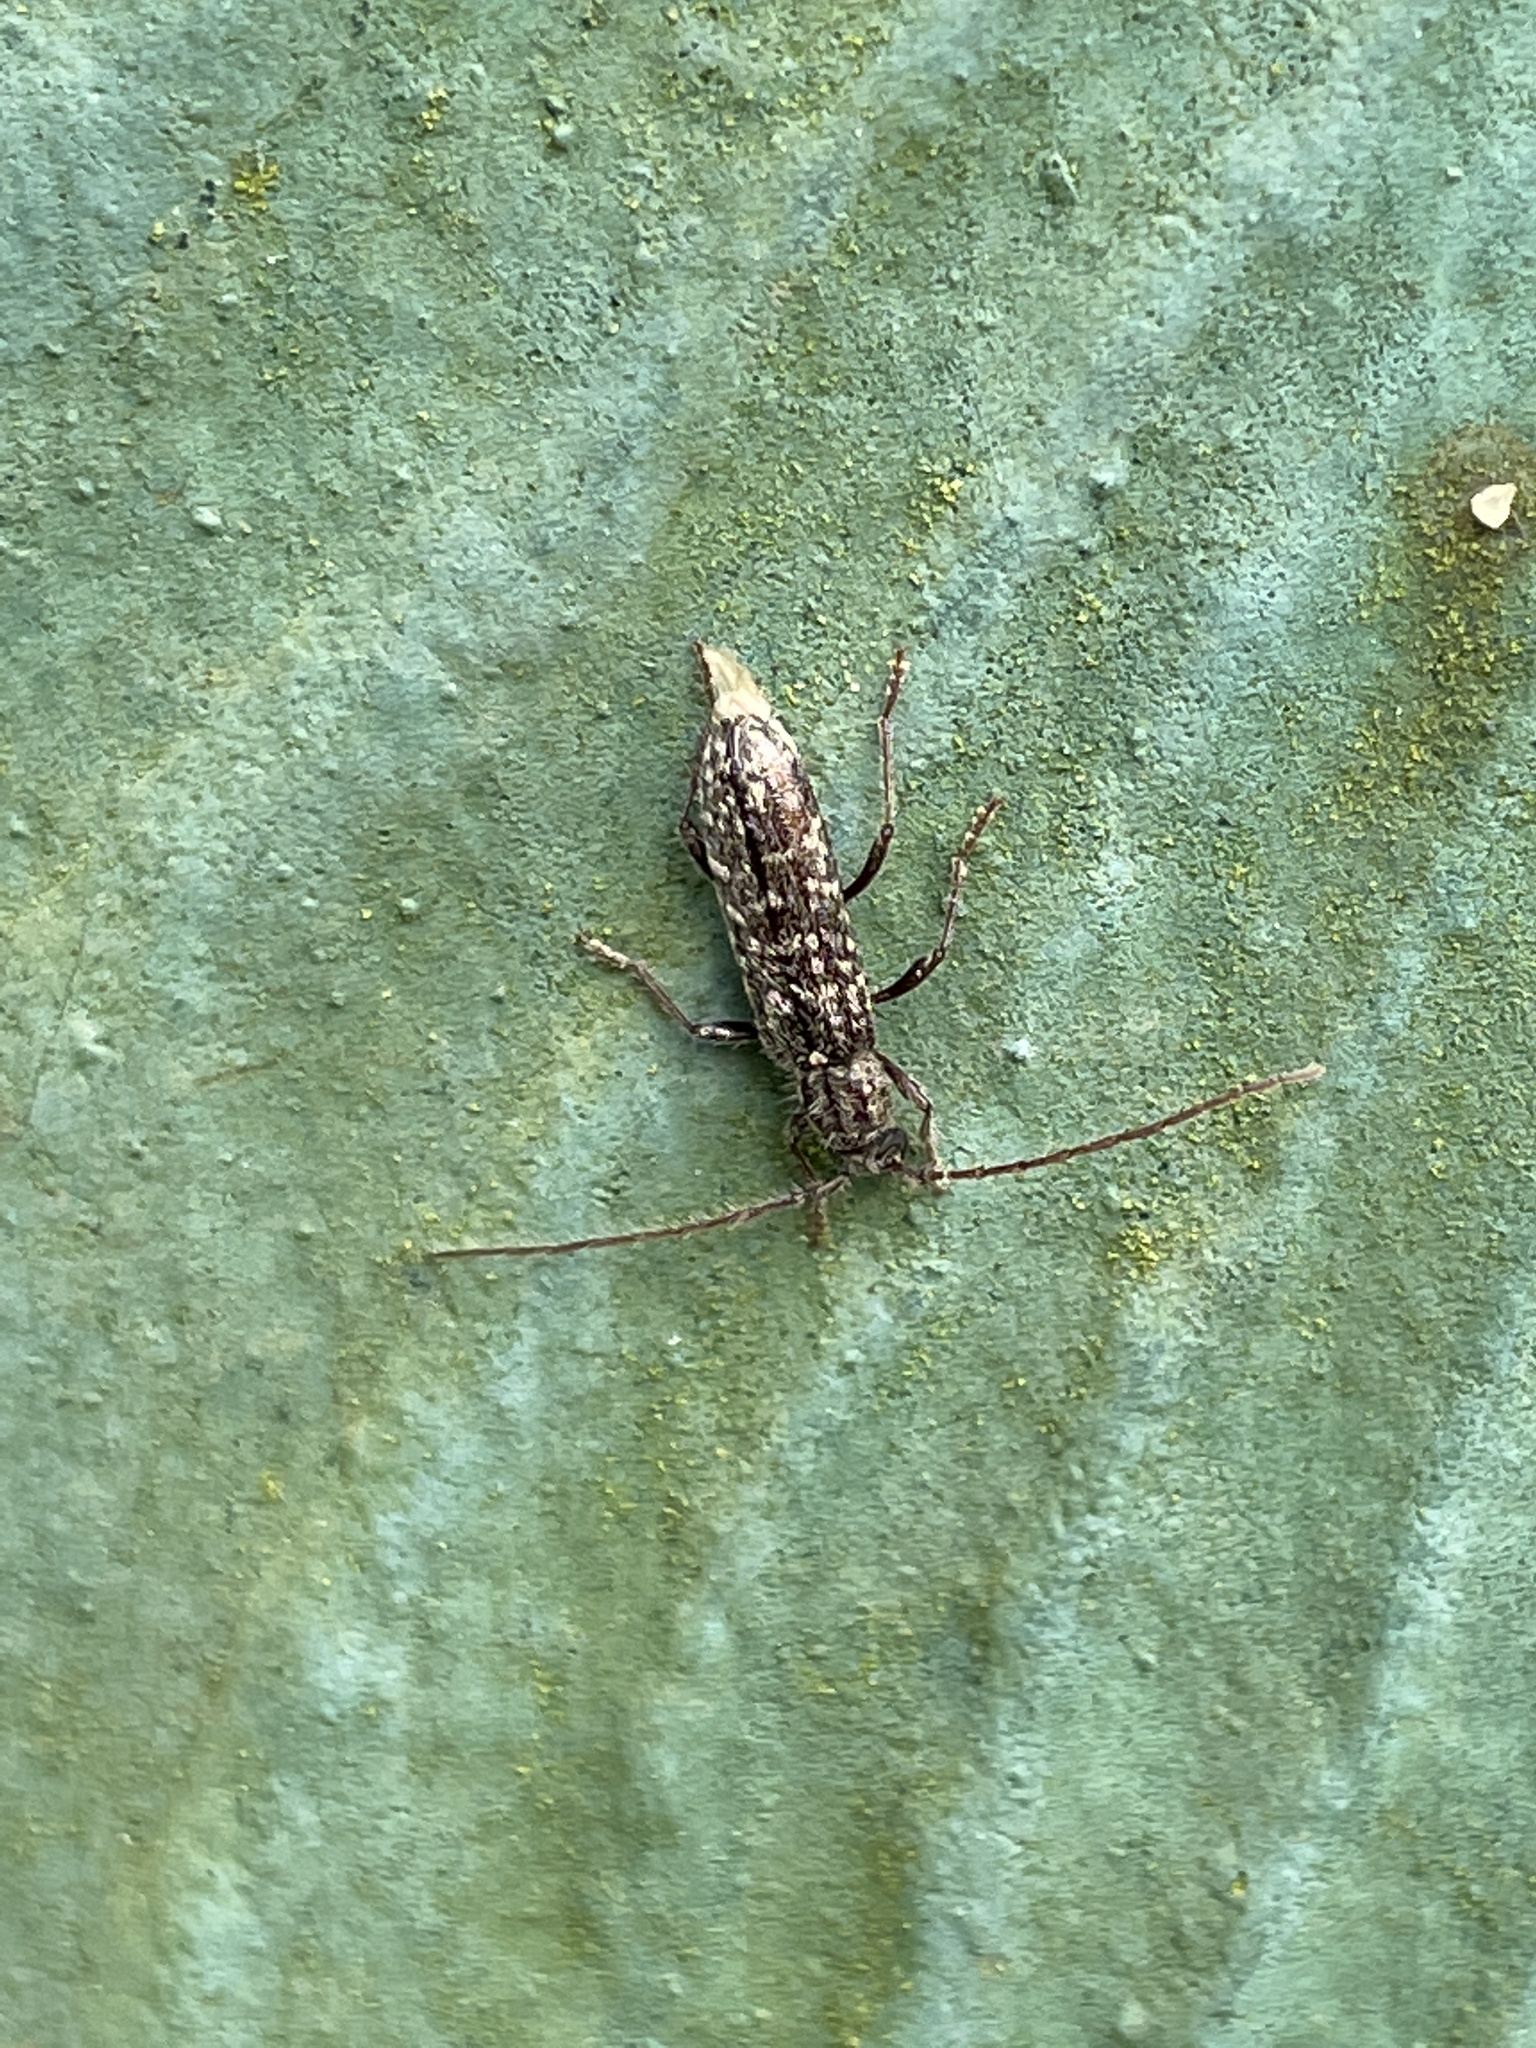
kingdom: Animalia
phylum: Arthropoda
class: Insecta
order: Coleoptera
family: Cerambycidae
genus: Anelaphus
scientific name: Anelaphus pumilus
